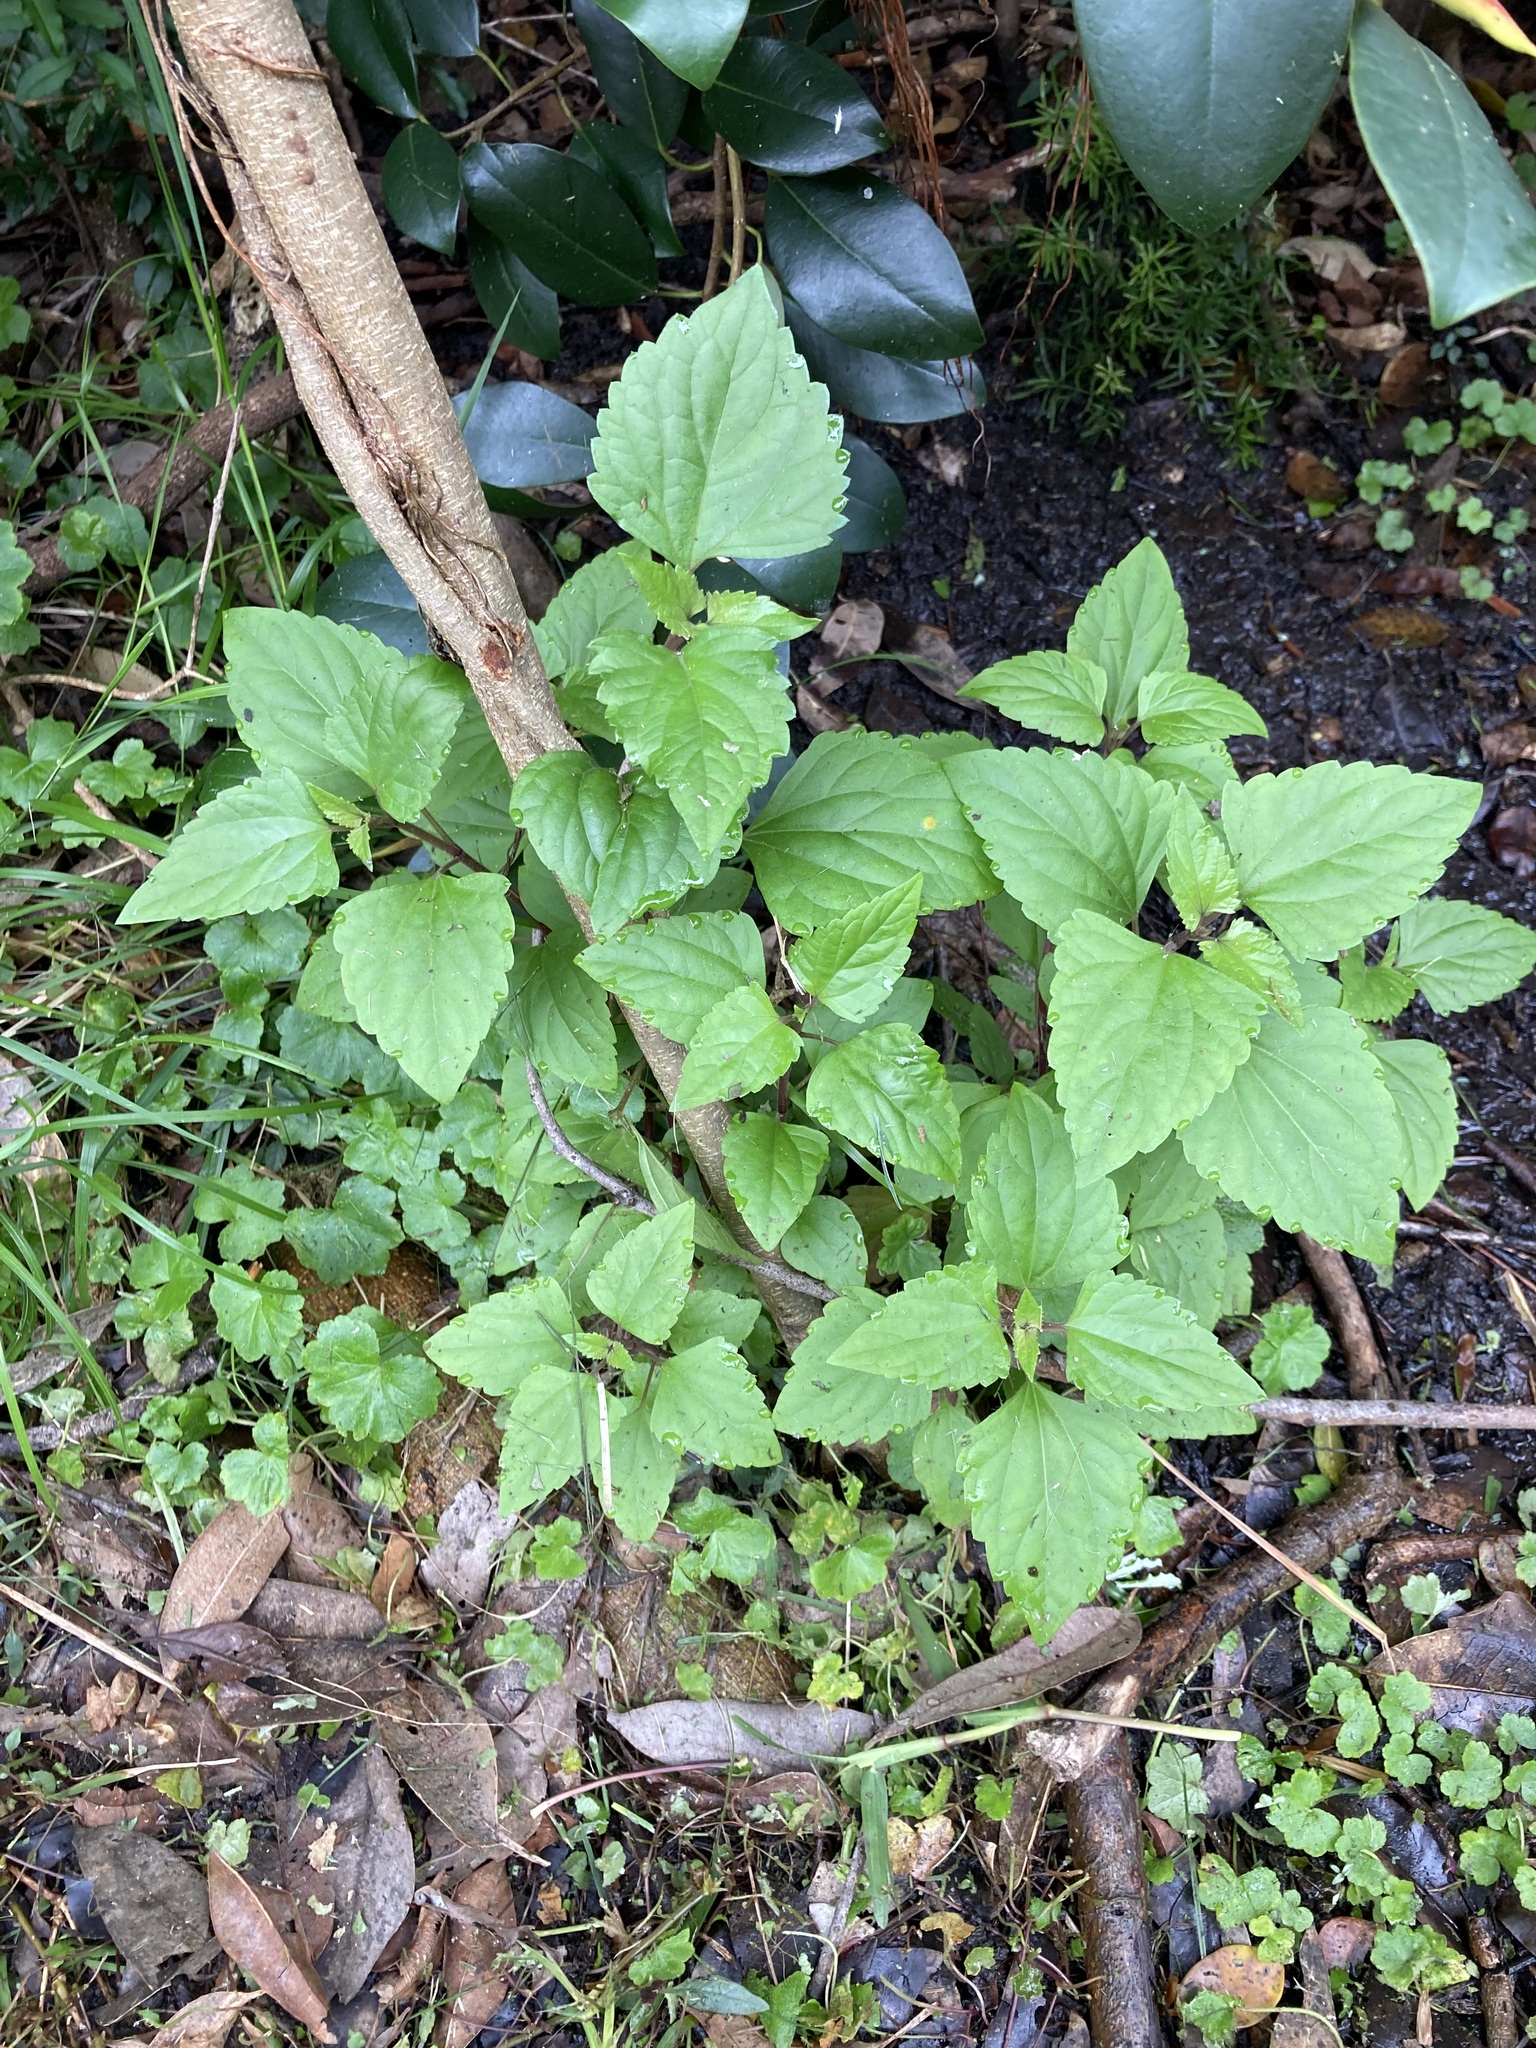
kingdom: Plantae
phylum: Tracheophyta
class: Magnoliopsida
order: Asterales
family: Asteraceae
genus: Ageratina
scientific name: Ageratina adenophora
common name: Sticky snakeroot
